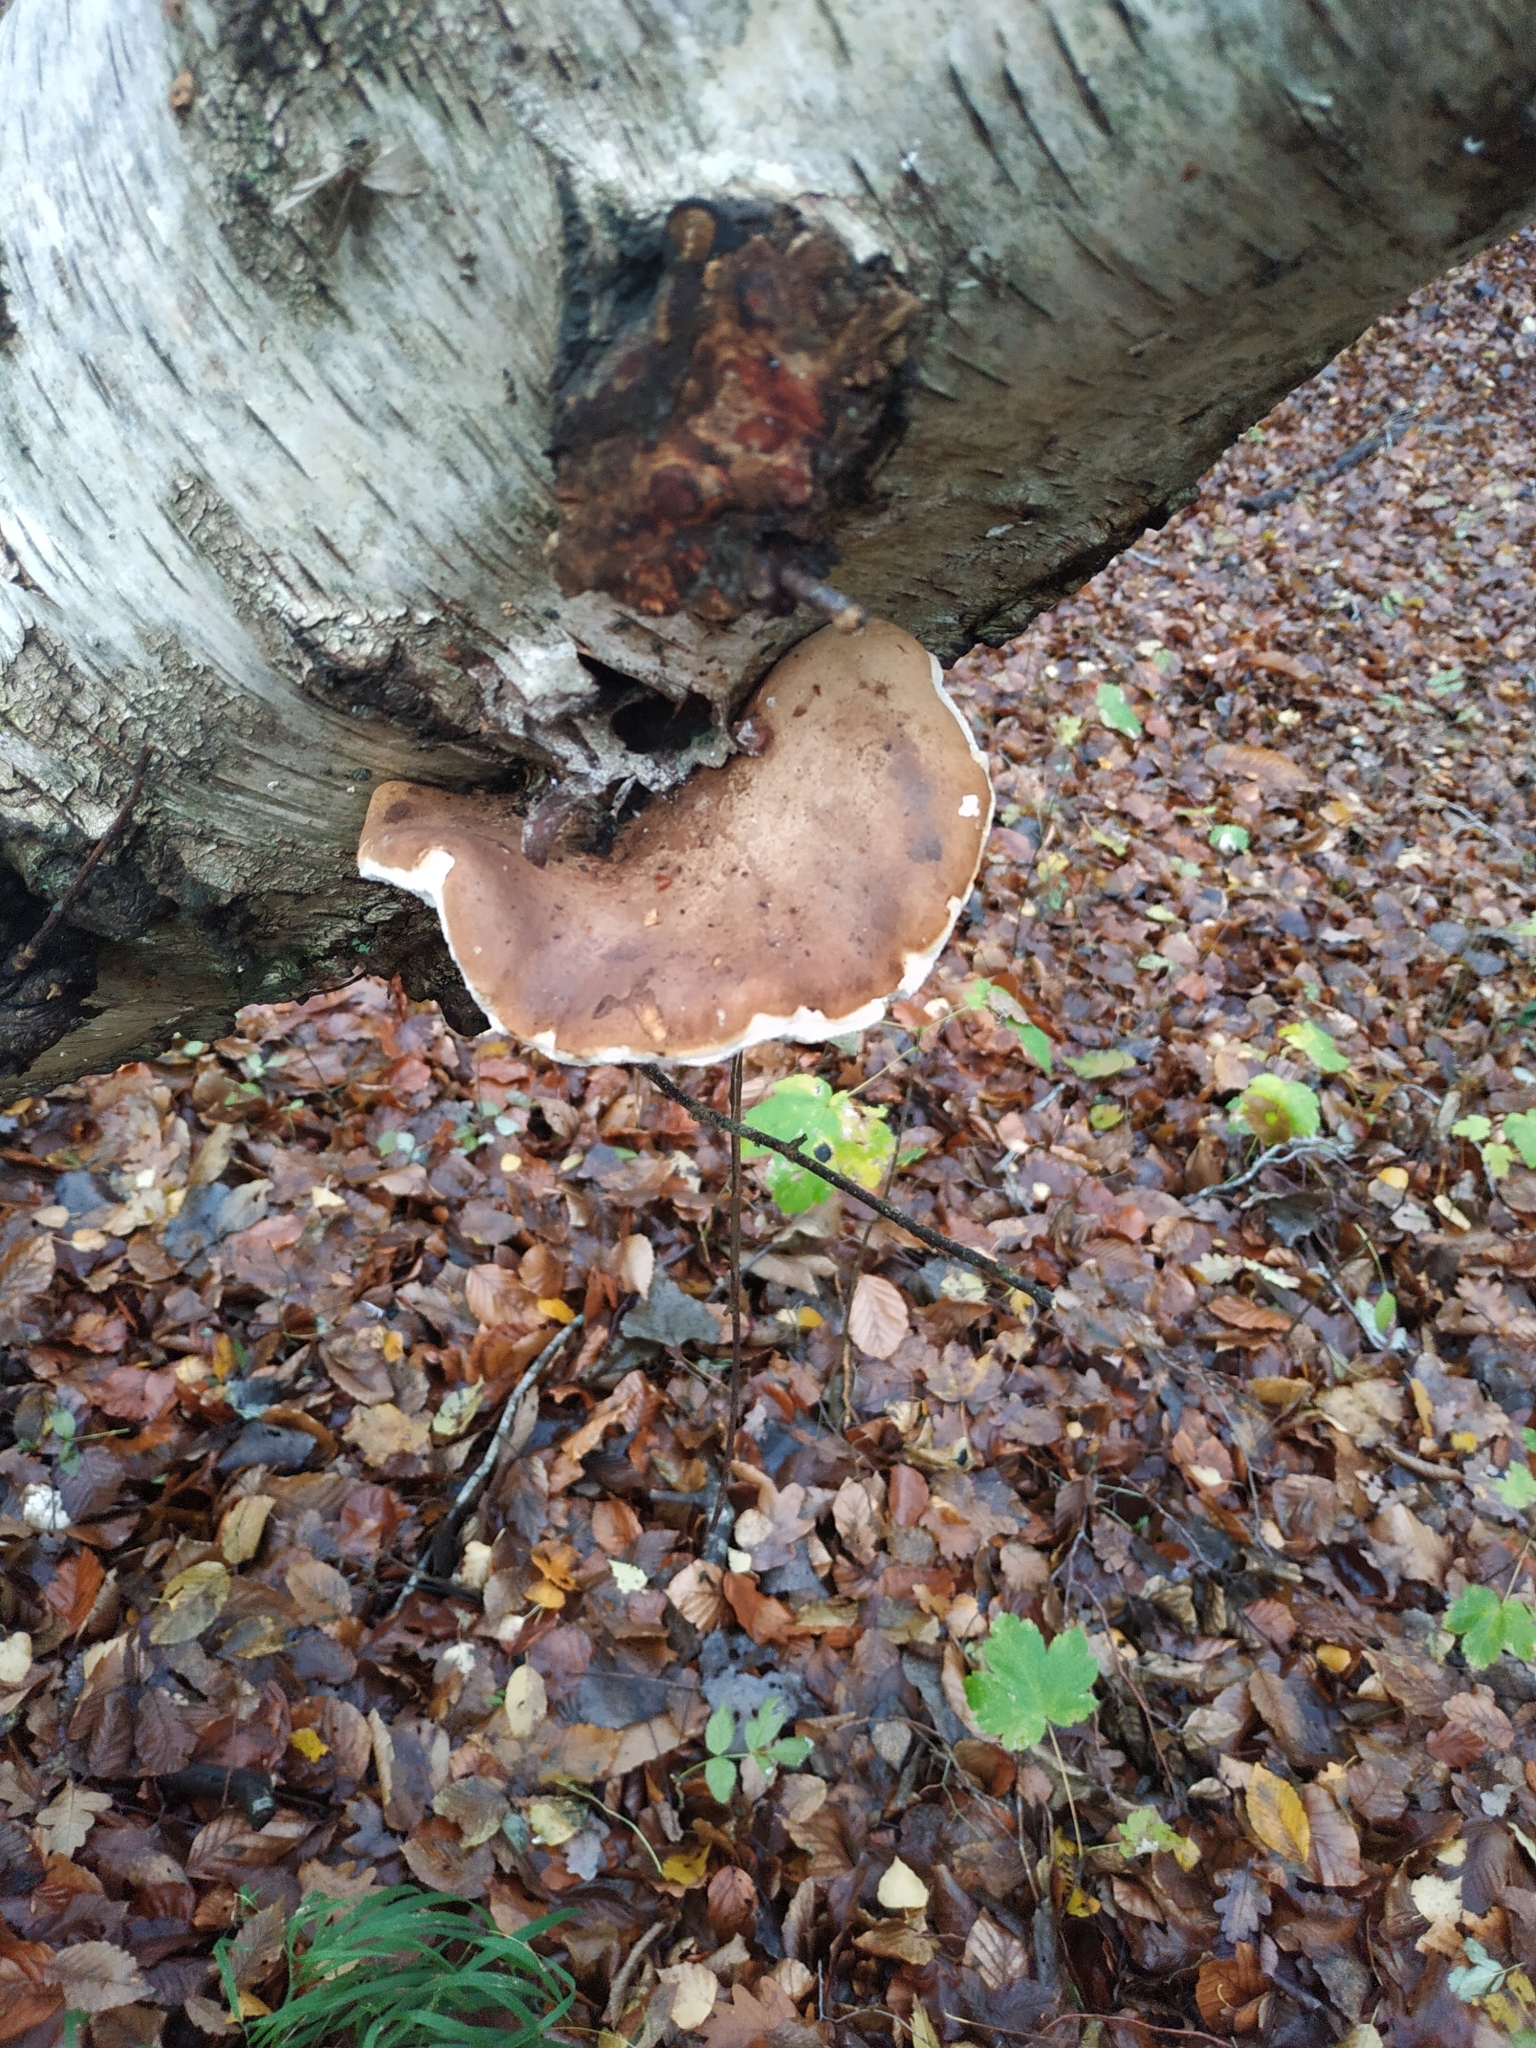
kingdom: Fungi
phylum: Basidiomycota
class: Agaricomycetes
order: Polyporales
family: Fomitopsidaceae
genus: Fomitopsis
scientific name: Fomitopsis betulina
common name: Birch polypore
